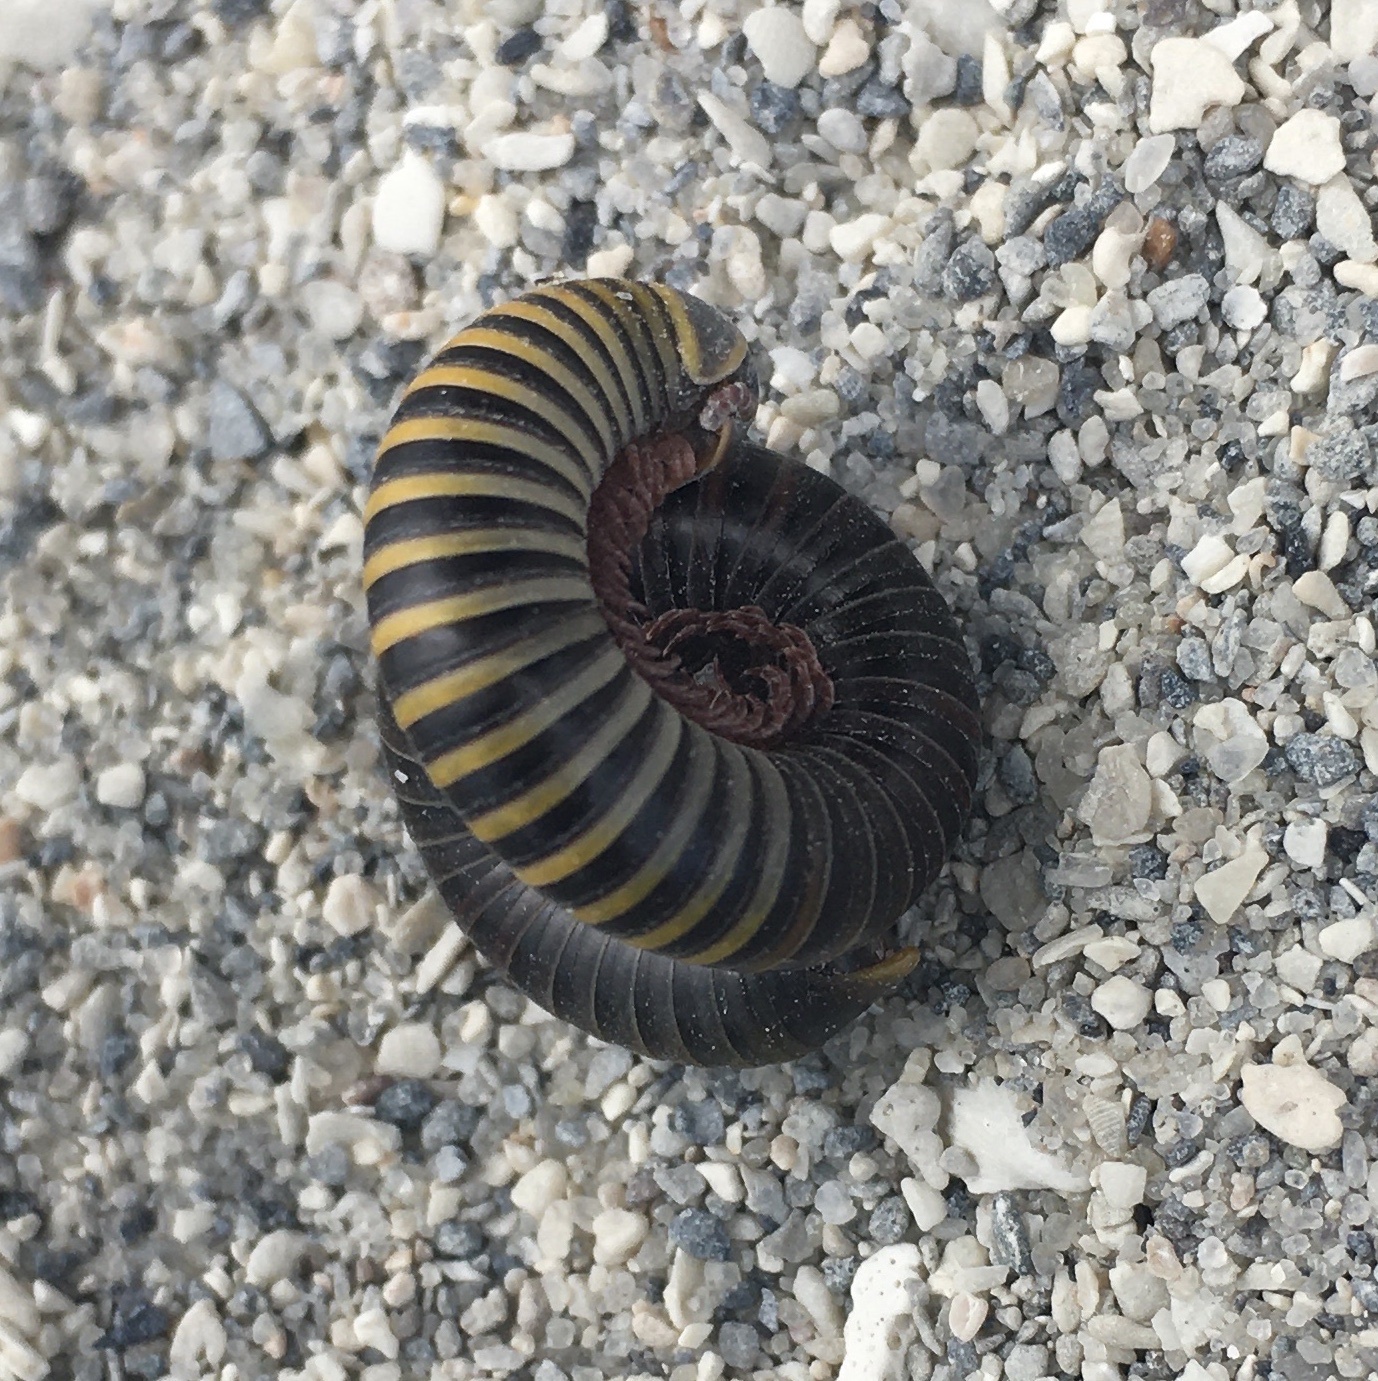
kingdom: Animalia
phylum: Arthropoda
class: Diplopoda
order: Spirobolida
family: Rhinocricidae
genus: Anadenobolus
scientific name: Anadenobolus monilicornis
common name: Caribbean millipede
